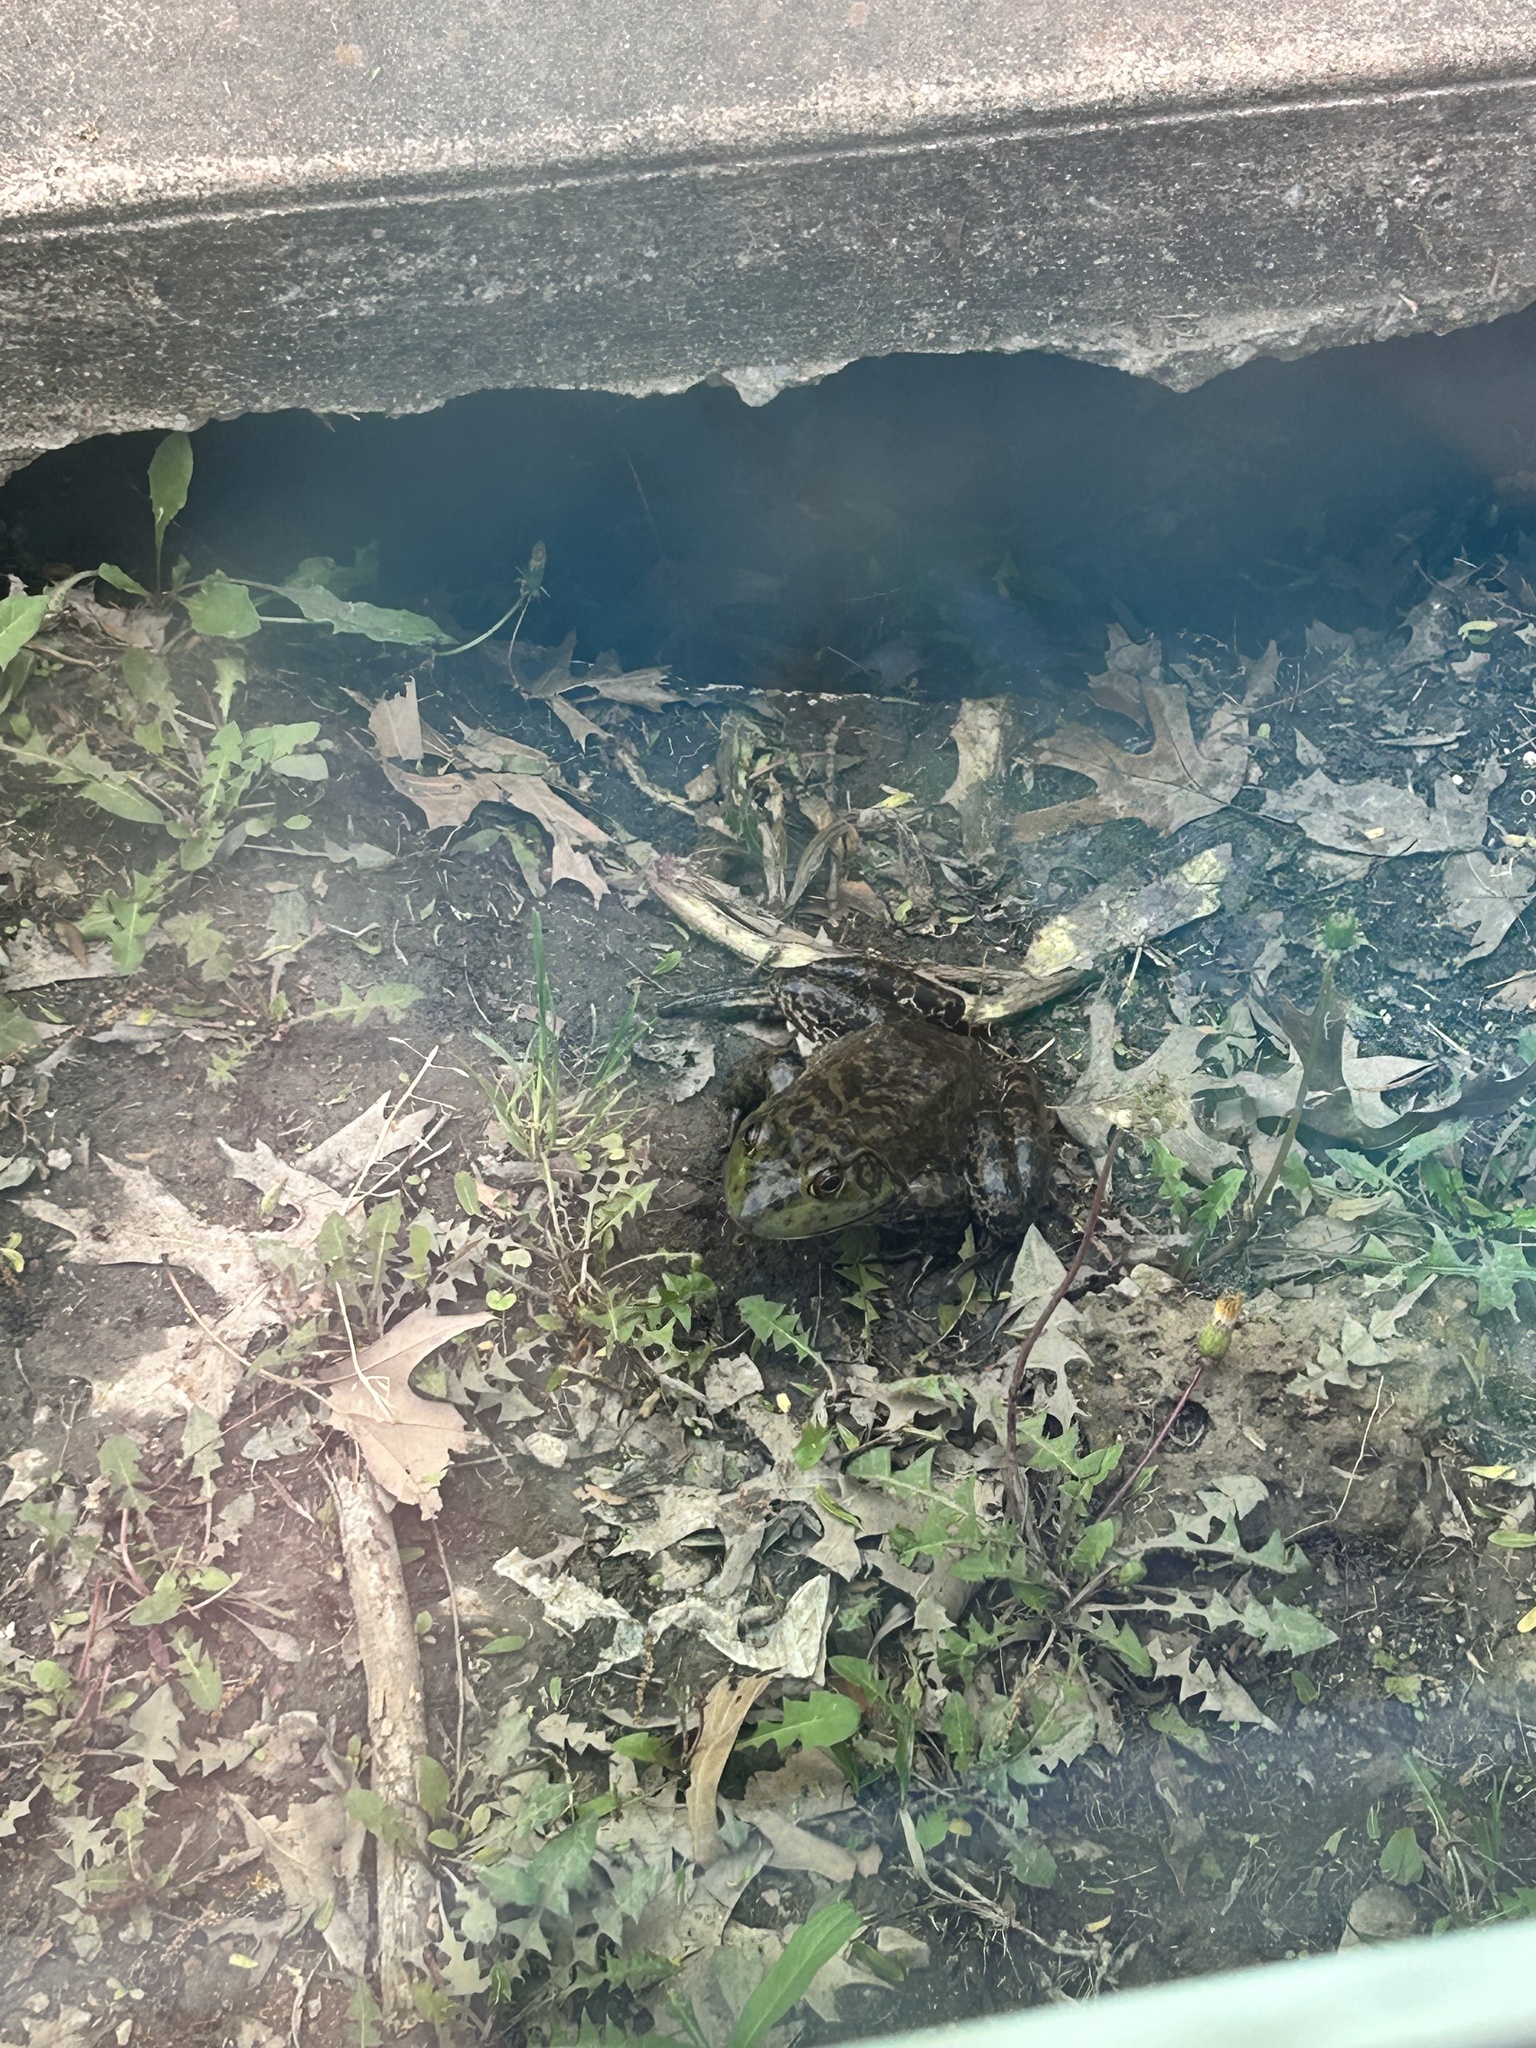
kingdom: Animalia
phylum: Chordata
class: Amphibia
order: Anura
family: Ranidae
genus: Lithobates
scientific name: Lithobates catesbeianus
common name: American bullfrog
